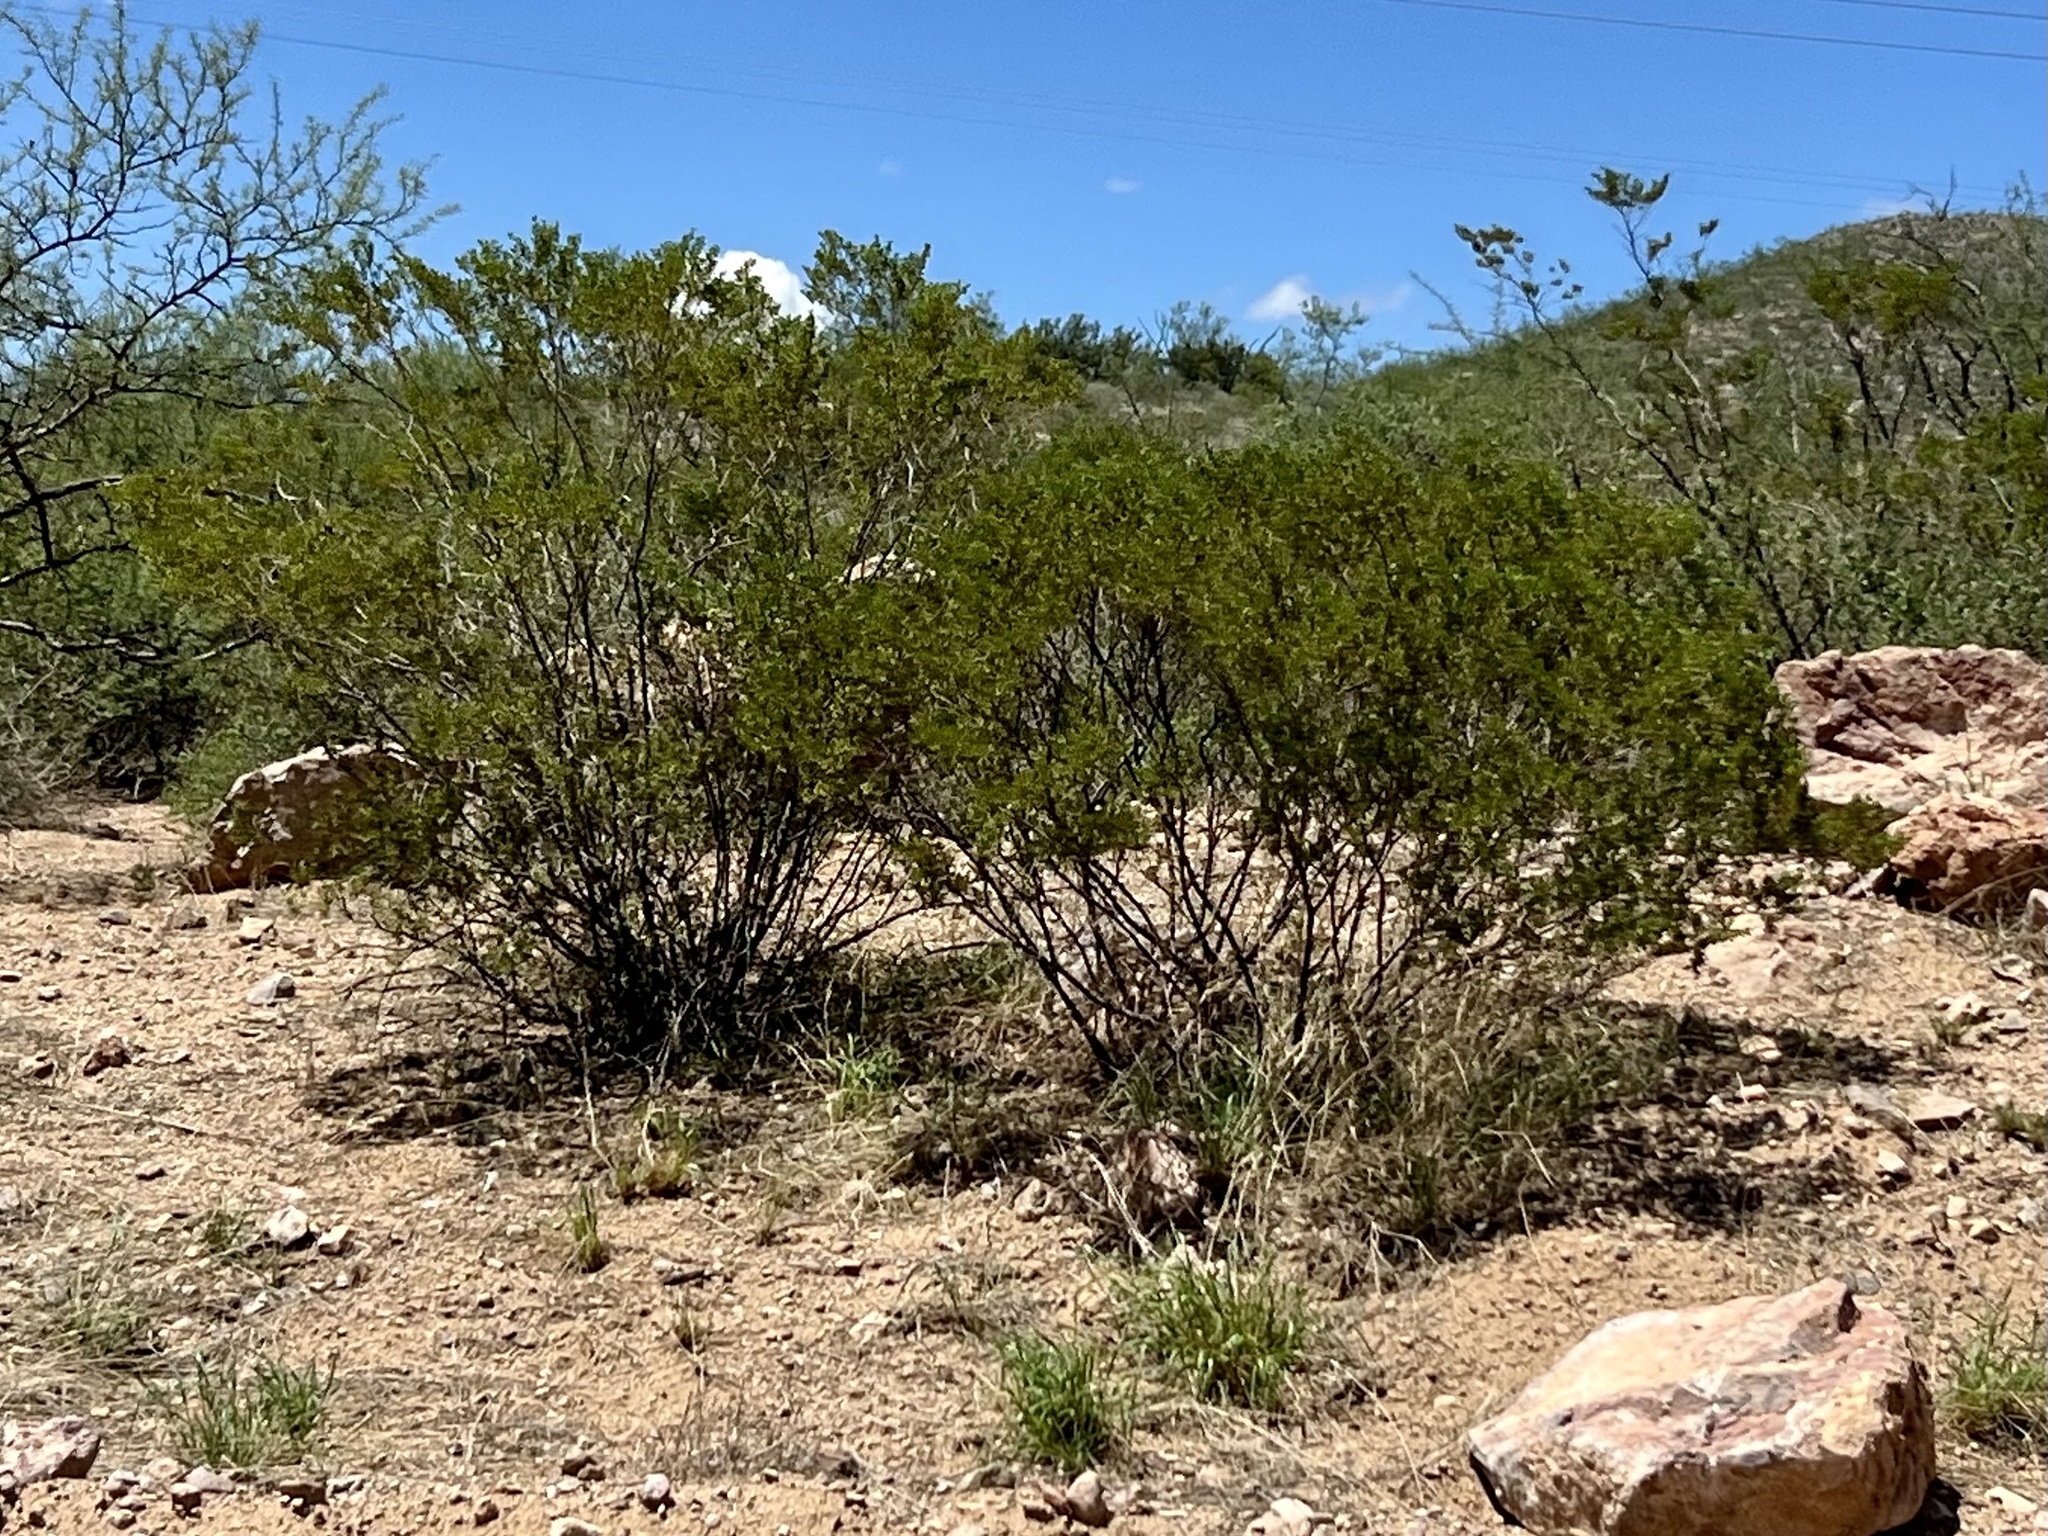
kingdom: Plantae
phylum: Tracheophyta
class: Magnoliopsida
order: Zygophyllales
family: Zygophyllaceae
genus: Larrea
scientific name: Larrea tridentata
